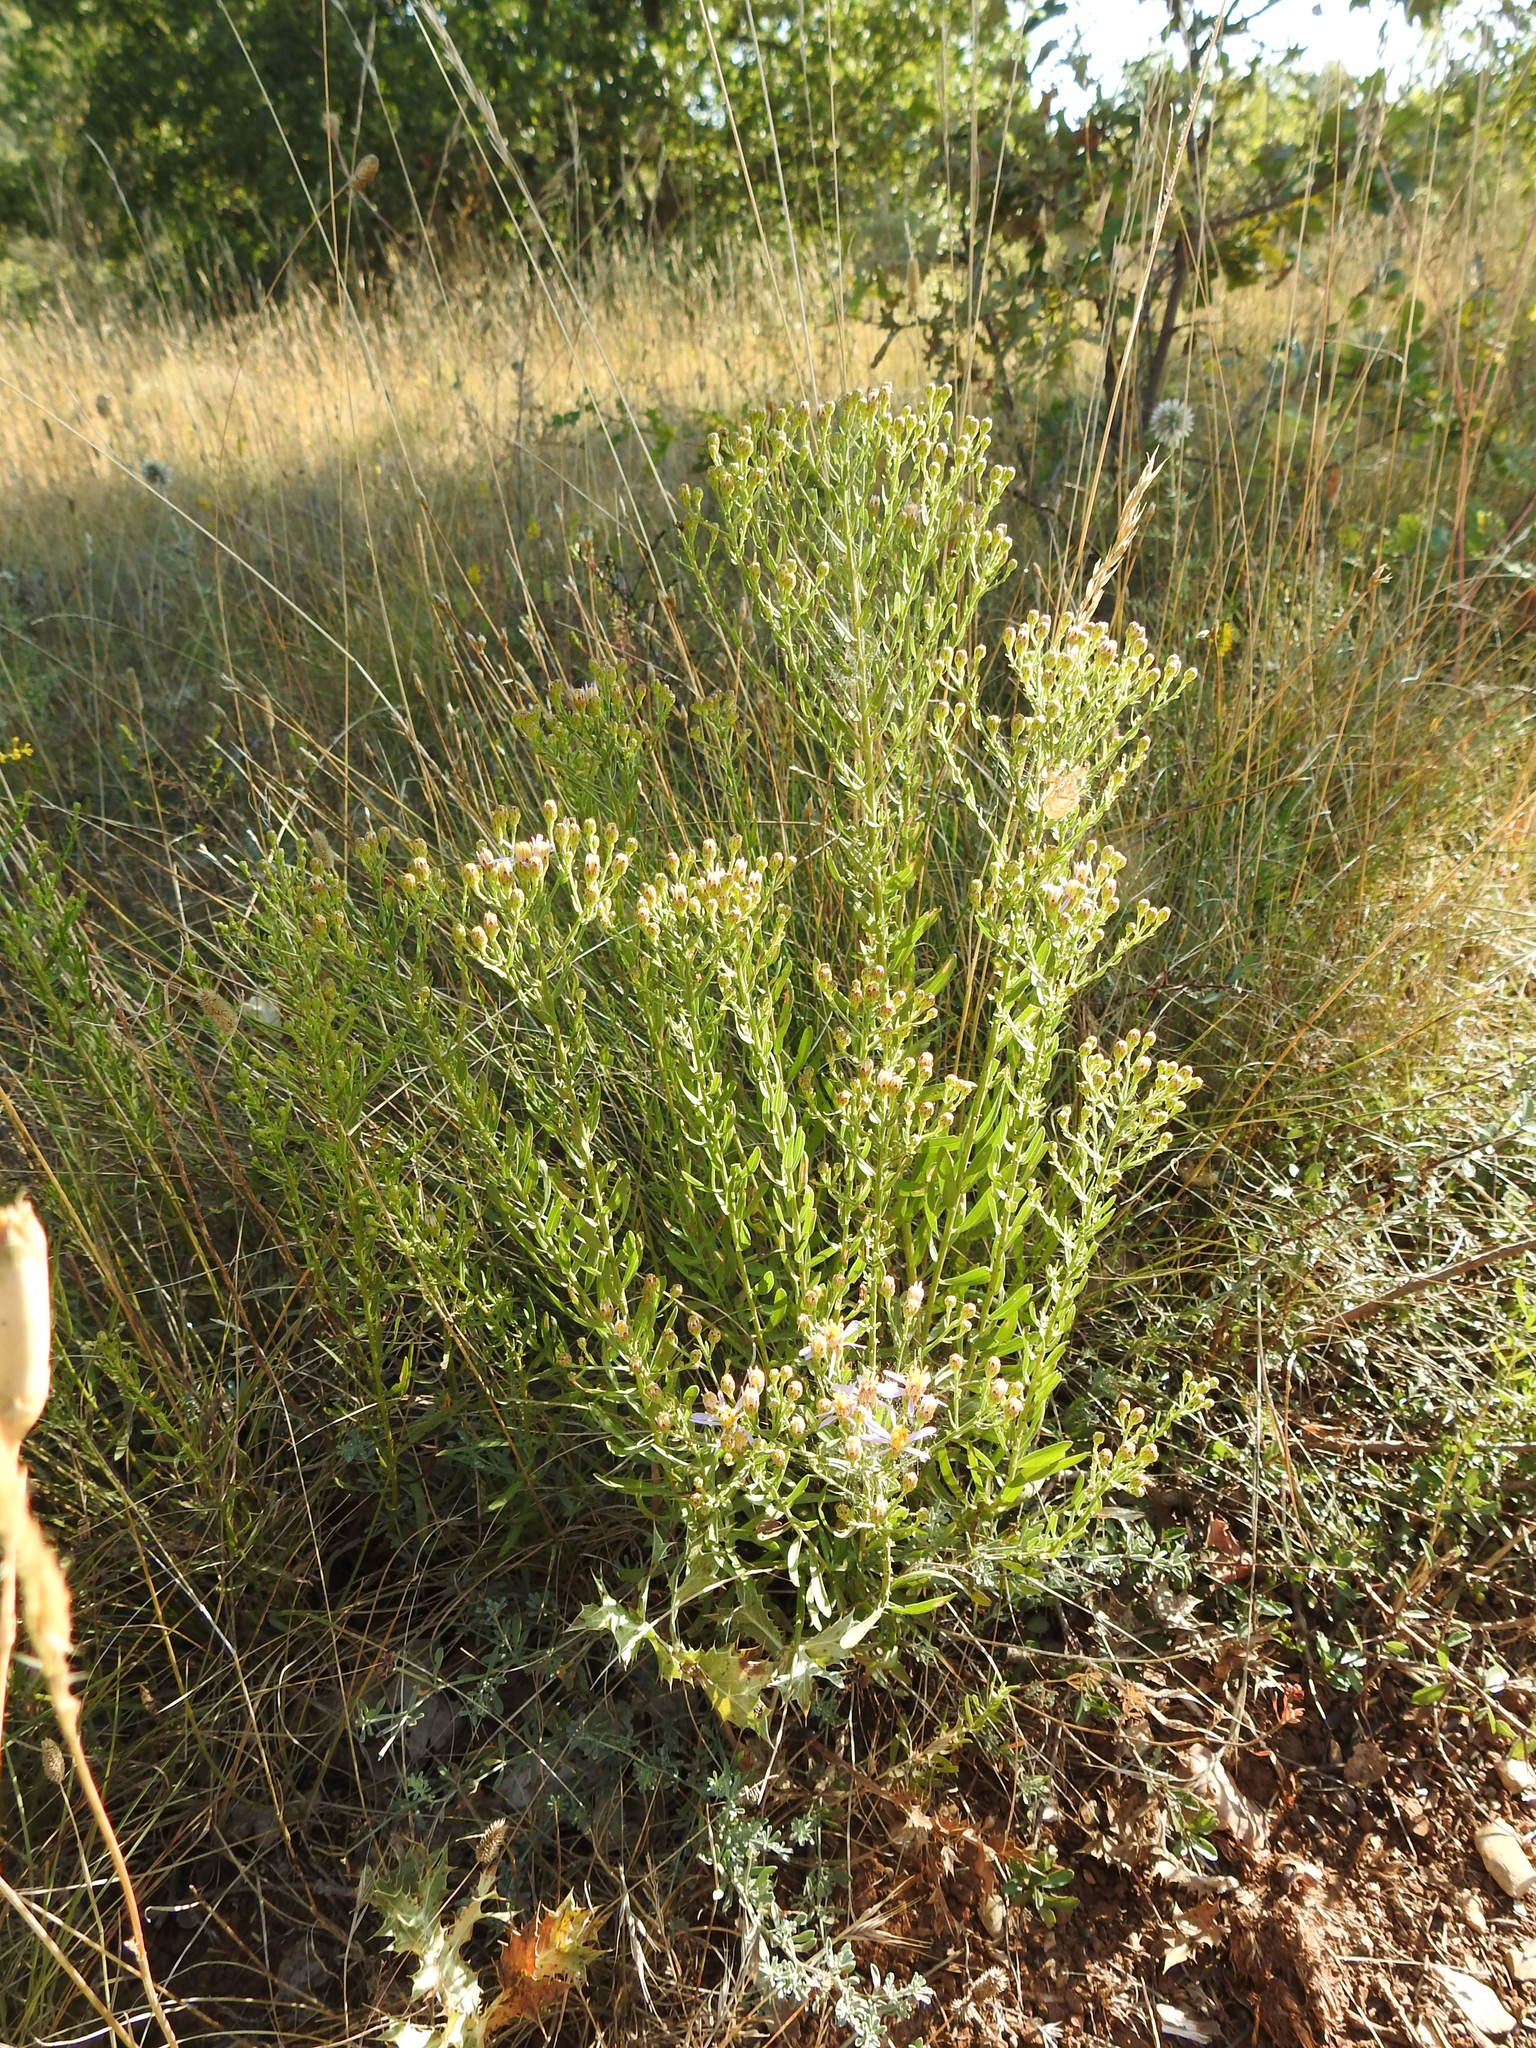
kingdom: Plantae
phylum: Tracheophyta
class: Magnoliopsida
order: Asterales
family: Asteraceae
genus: Galatella
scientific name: Galatella sedifolia
